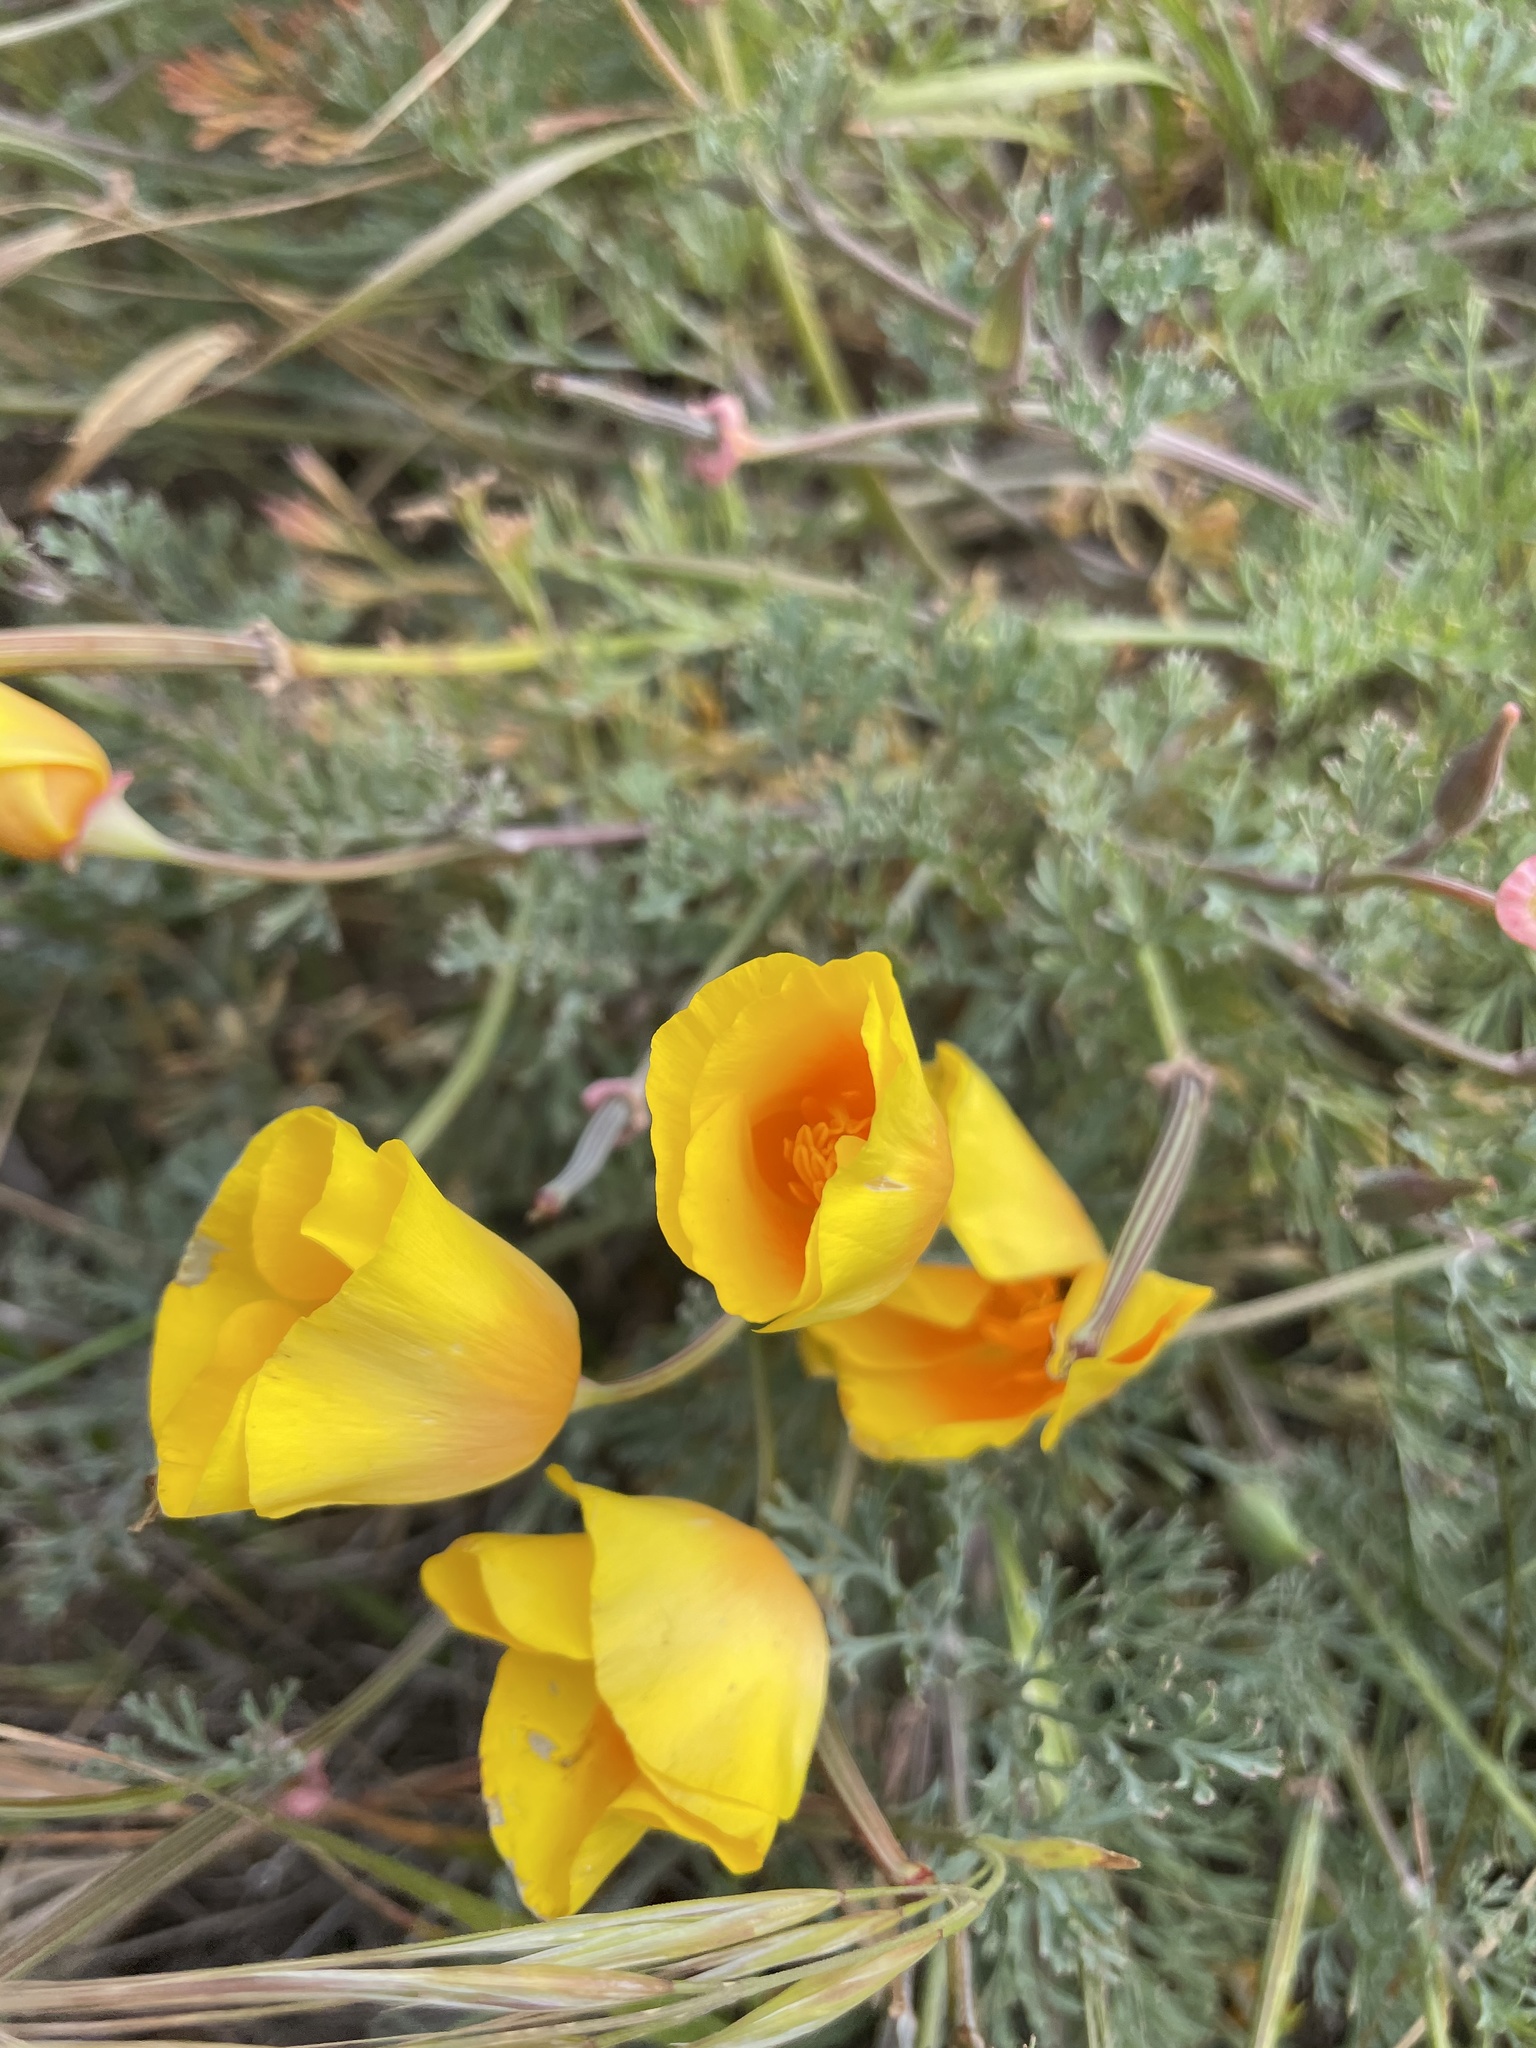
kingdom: Plantae
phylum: Tracheophyta
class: Magnoliopsida
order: Ranunculales
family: Papaveraceae
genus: Eschscholzia
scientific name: Eschscholzia californica
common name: California poppy
